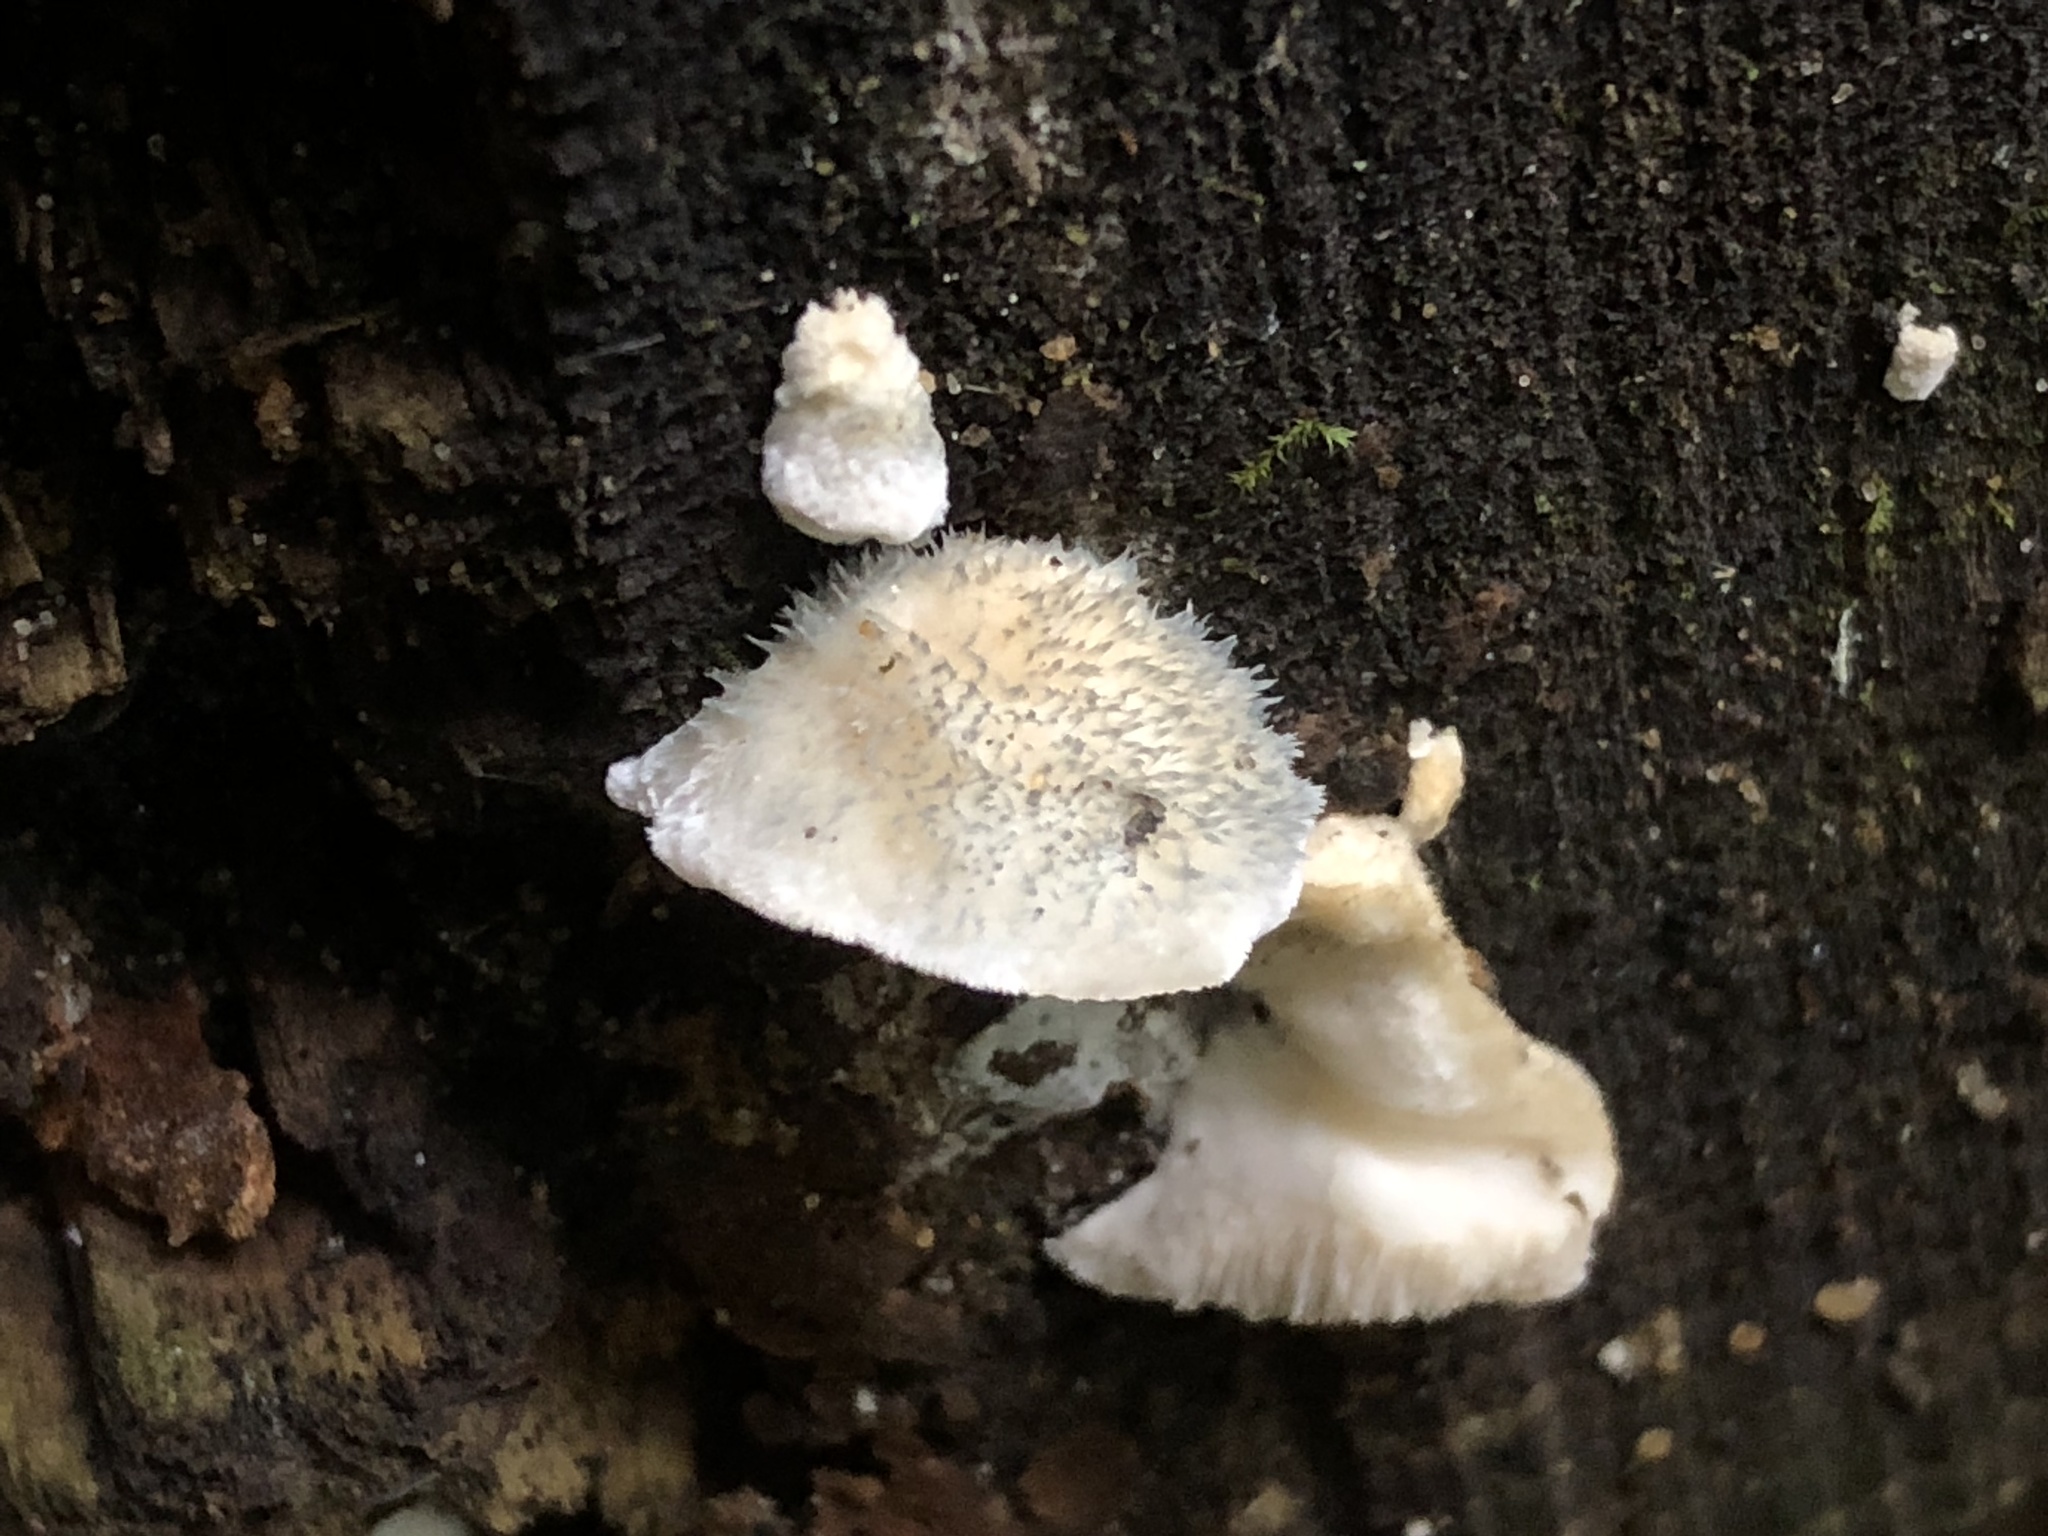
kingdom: Fungi
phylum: Basidiomycota
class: Agaricomycetes
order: Polyporales
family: Polyporaceae
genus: Cyanosporus
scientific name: Cyanosporus livens
